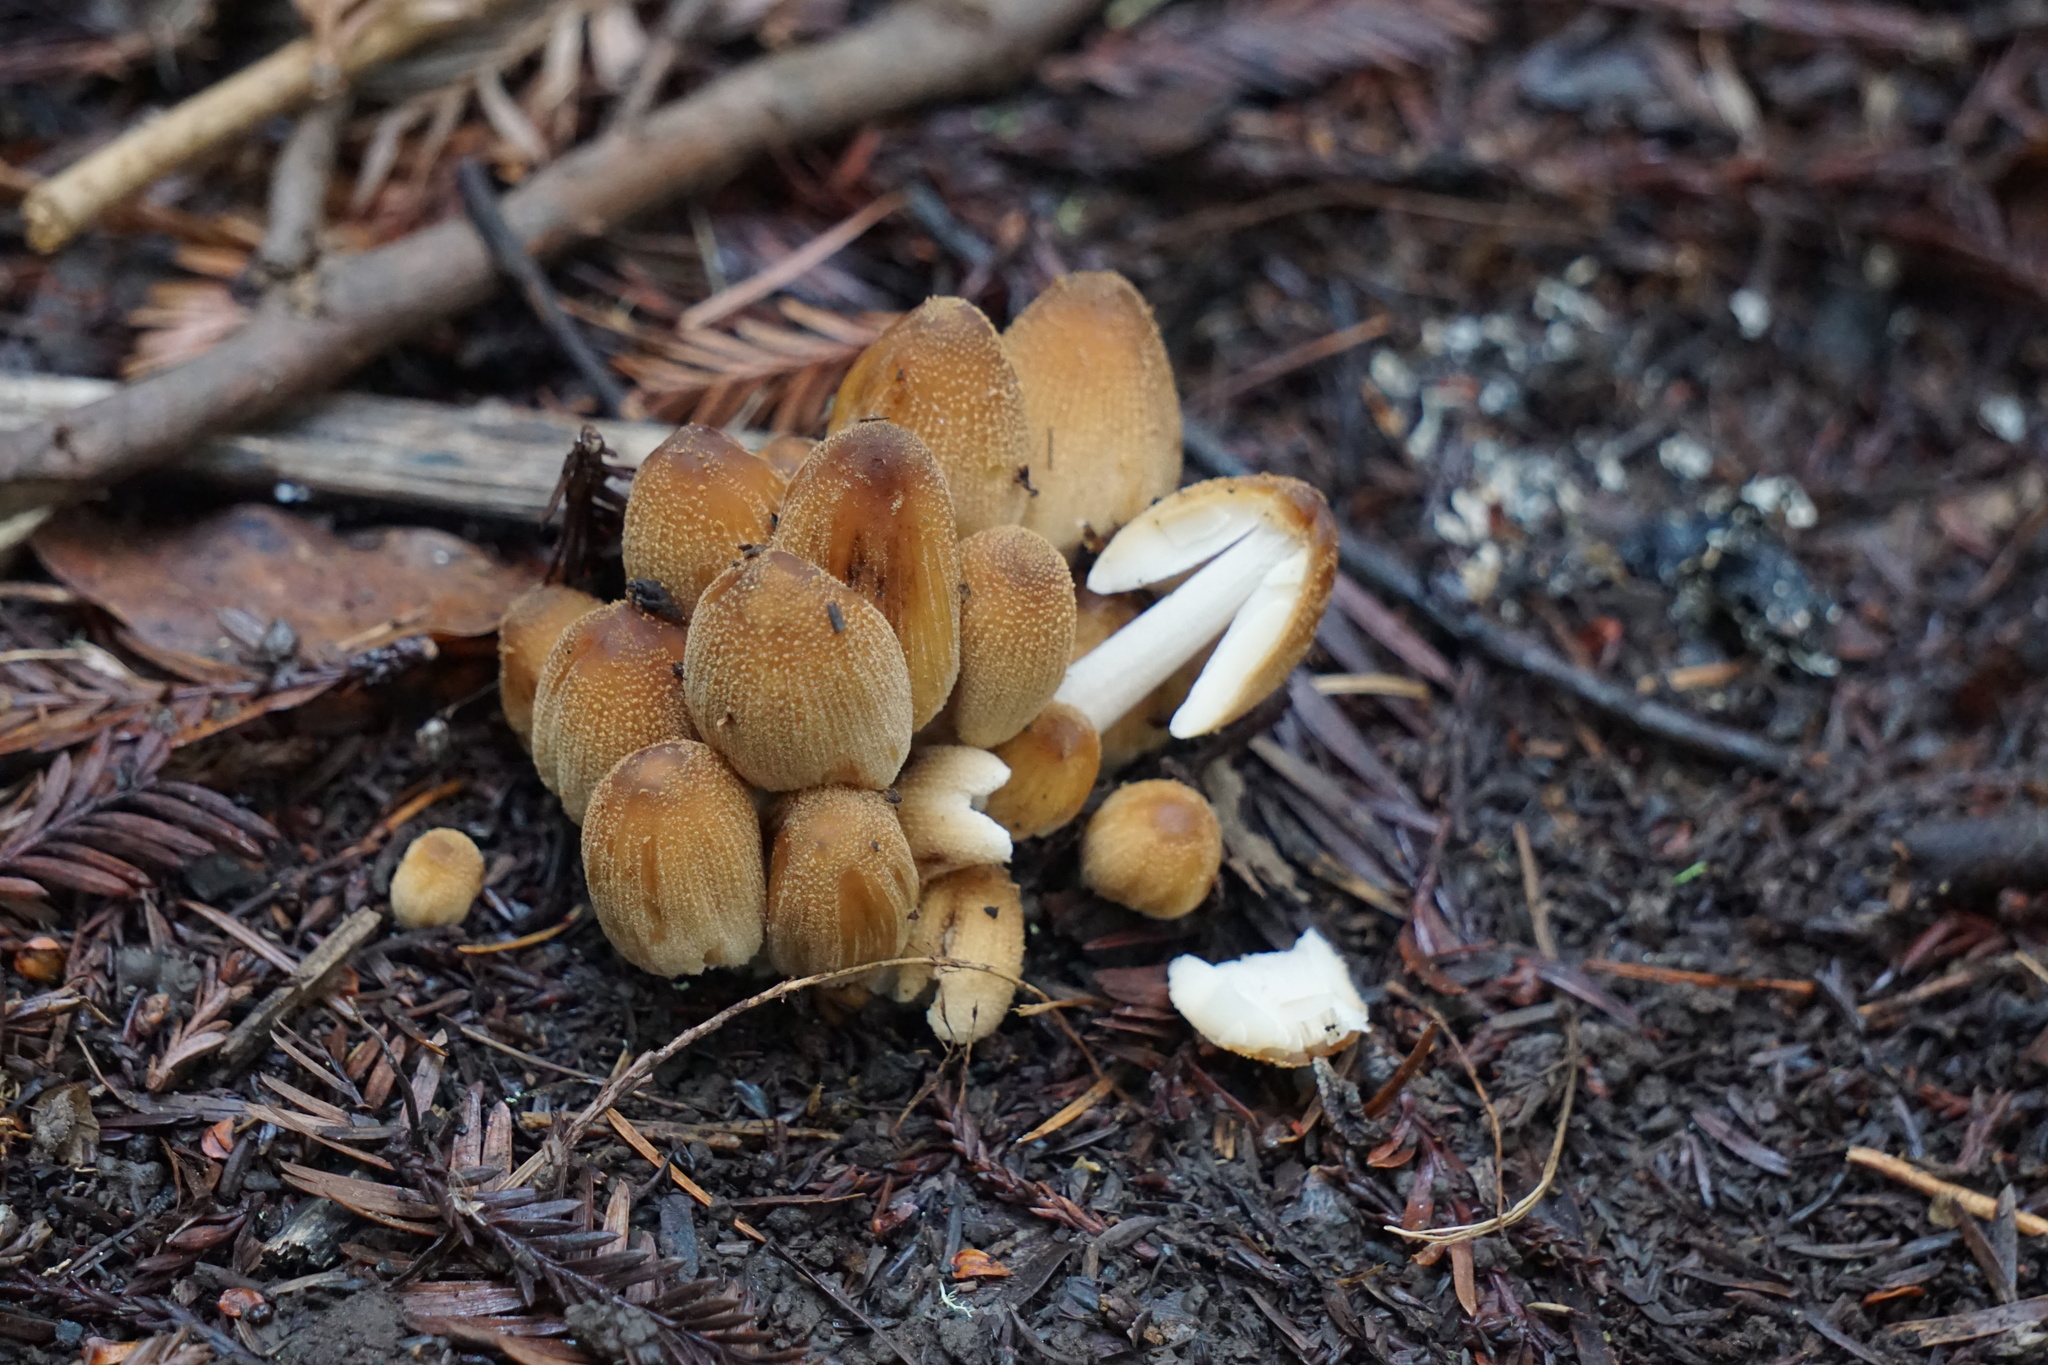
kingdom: Fungi
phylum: Basidiomycota
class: Agaricomycetes
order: Agaricales
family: Psathyrellaceae
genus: Coprinellus
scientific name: Coprinellus micaceus
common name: Glistening ink-cap
